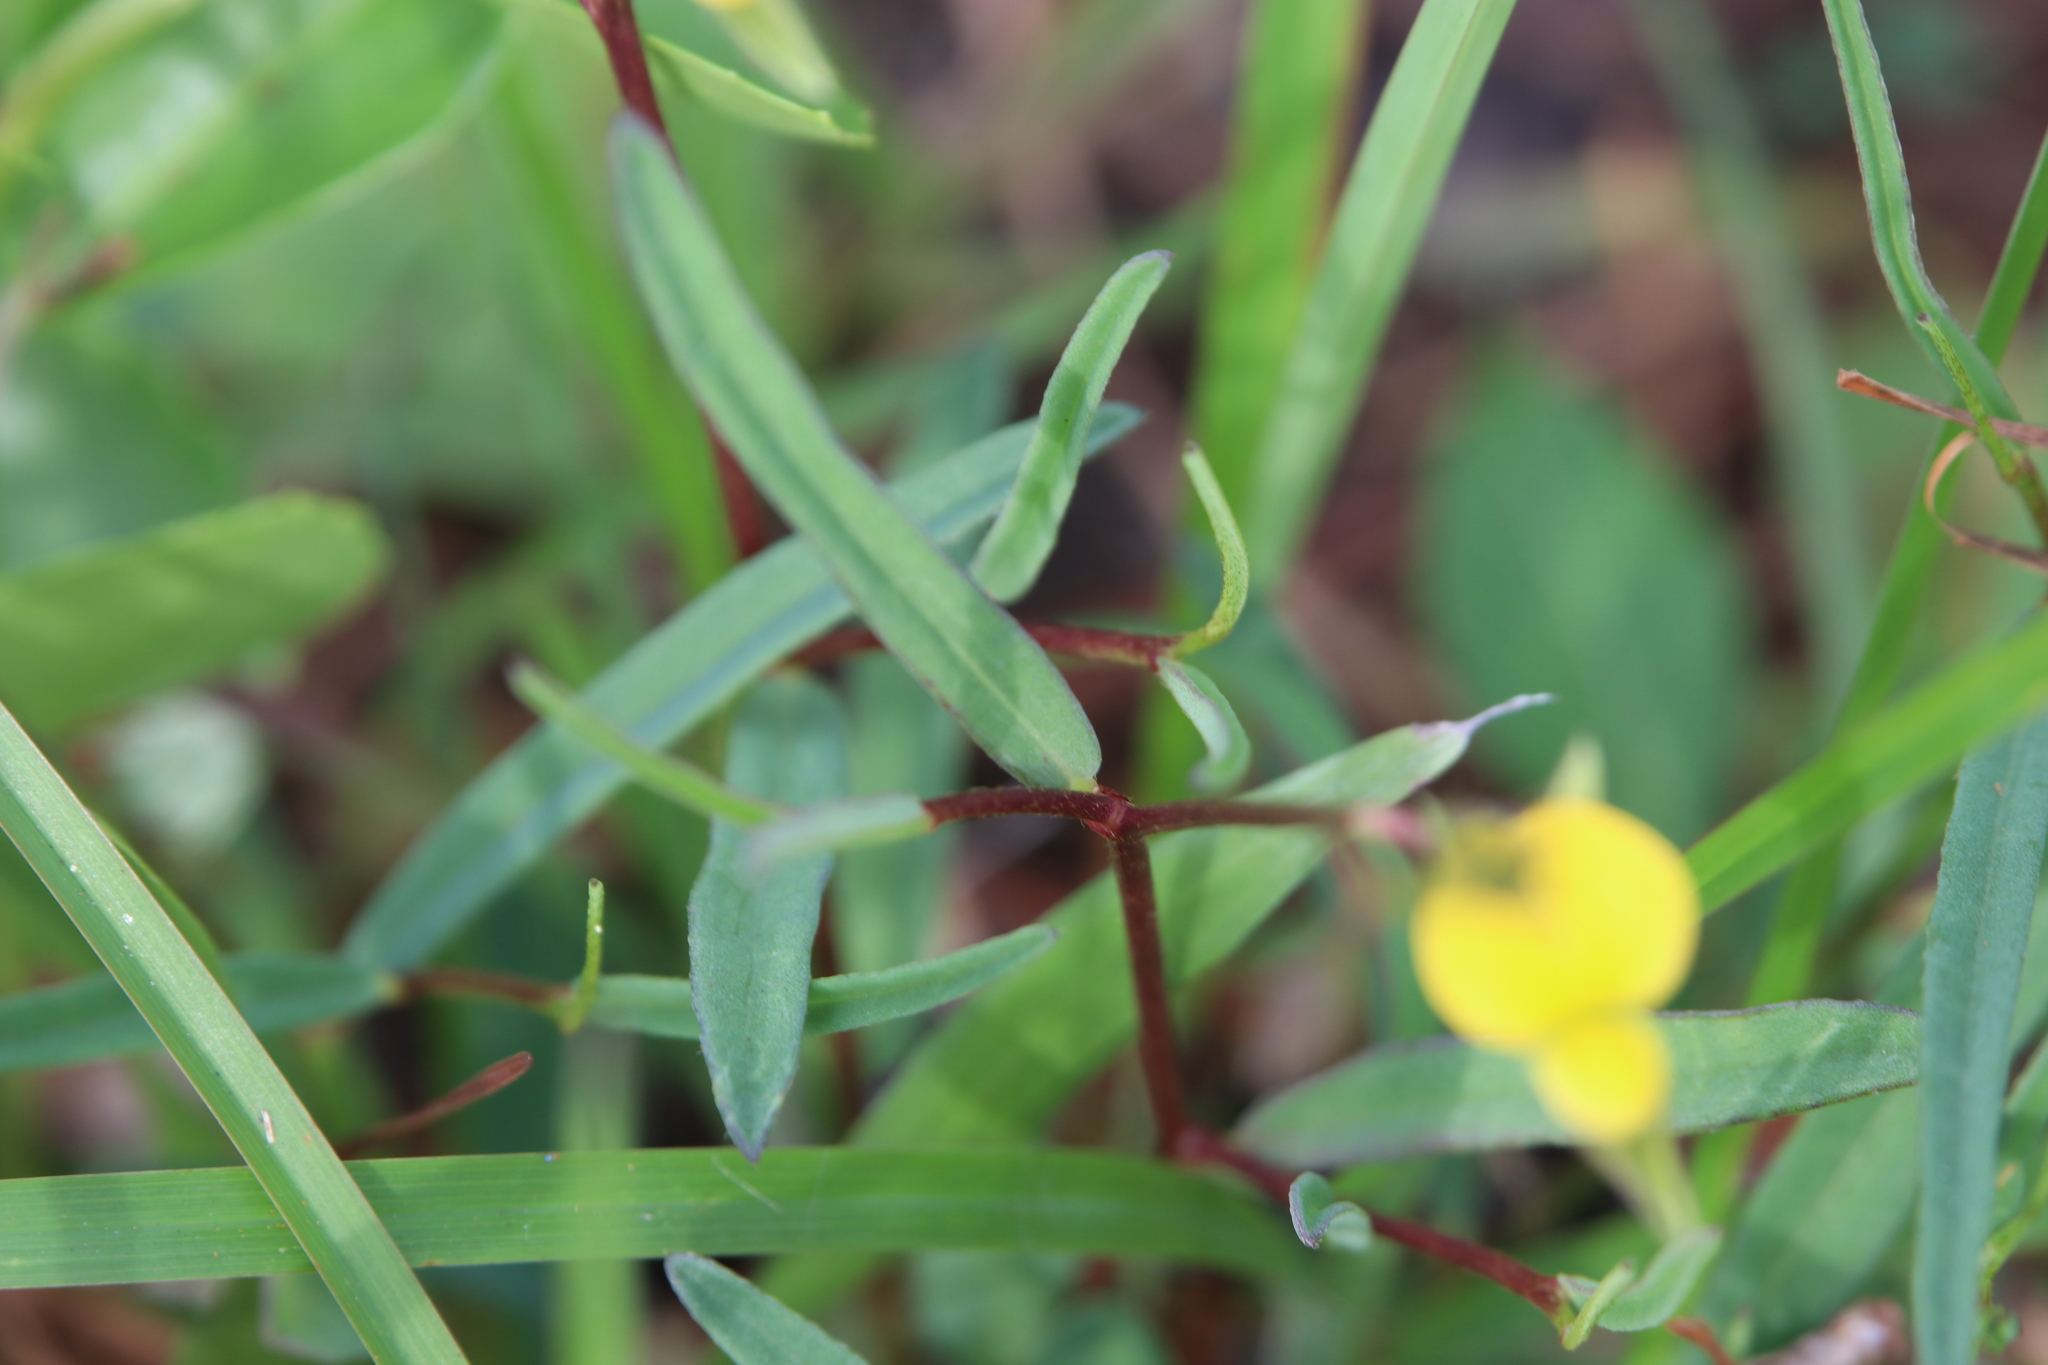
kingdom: Plantae
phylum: Tracheophyta
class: Magnoliopsida
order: Fabales
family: Fabaceae
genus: Crotalaria
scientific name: Crotalaria purshii
